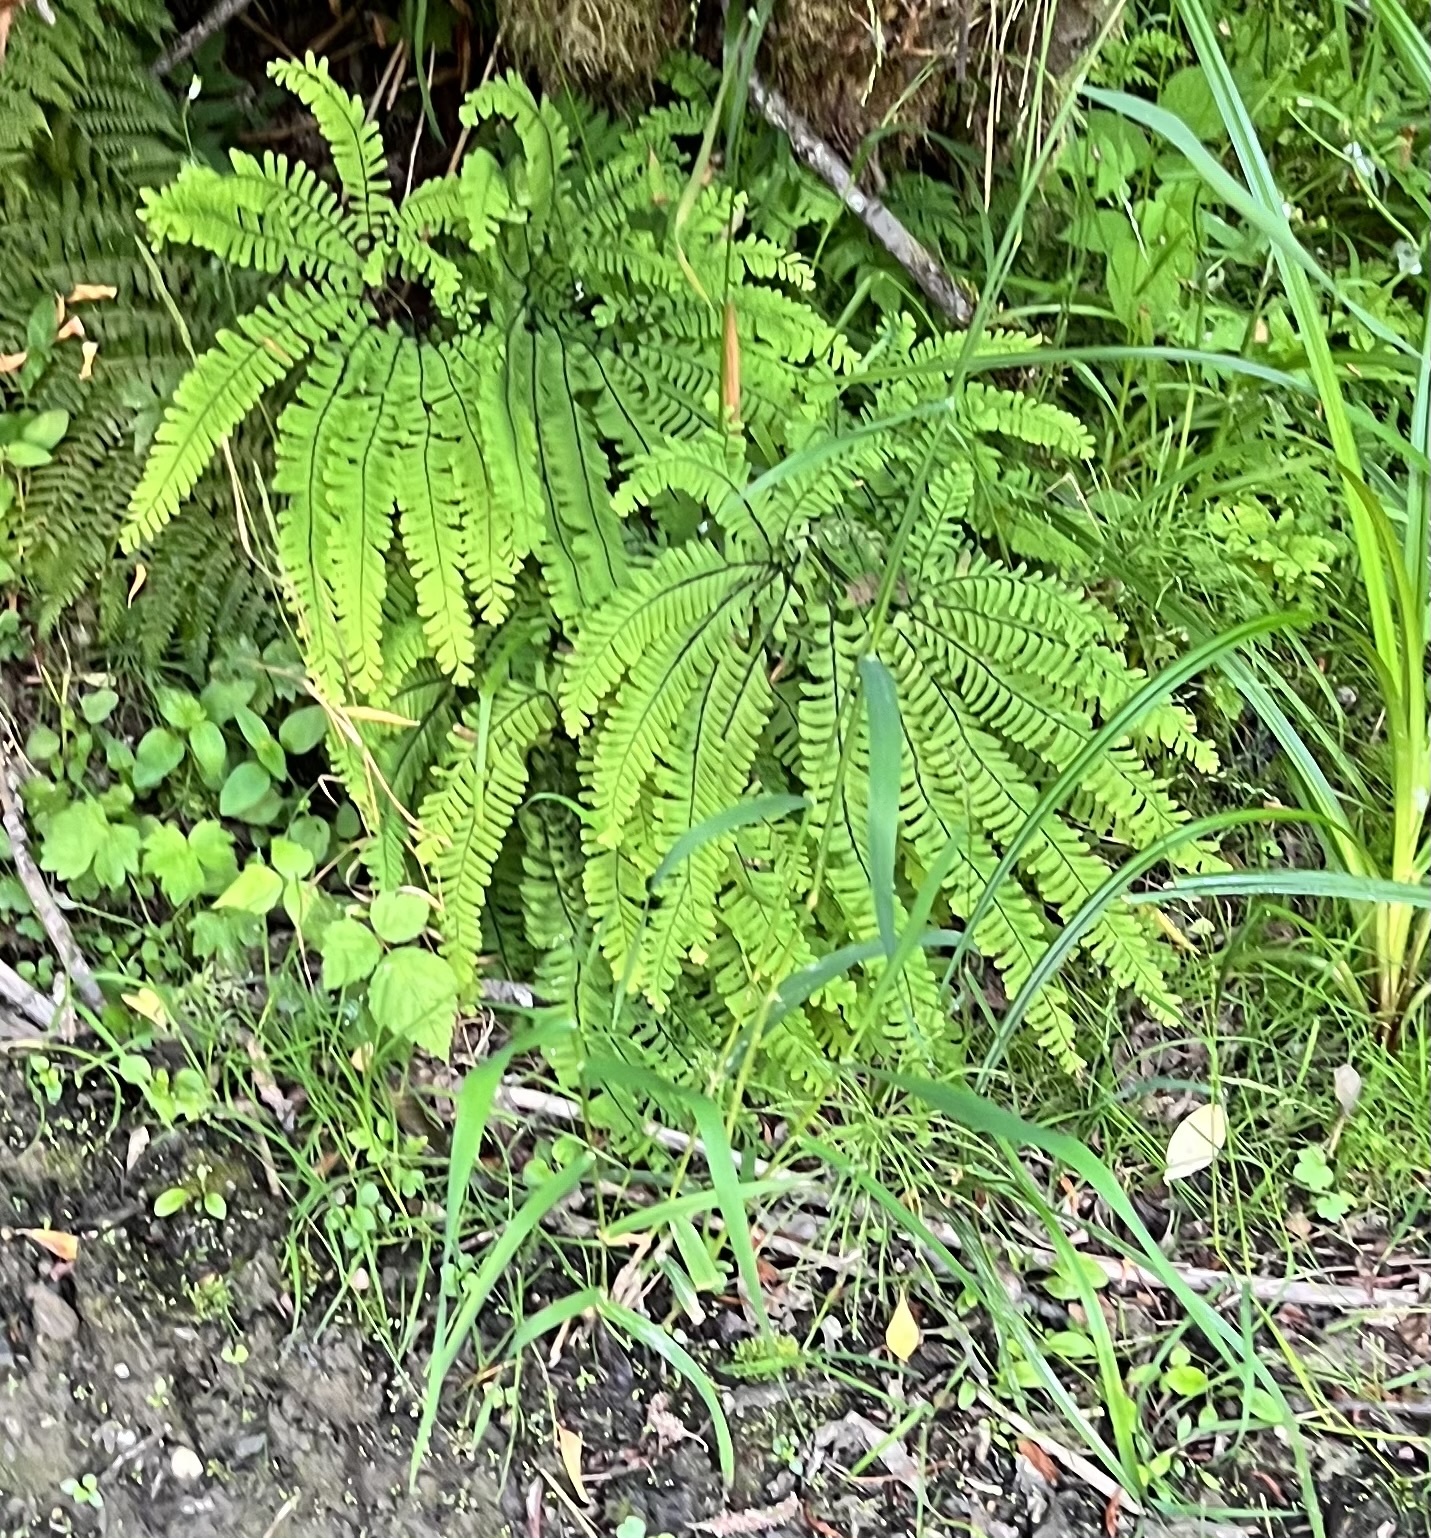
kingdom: Plantae
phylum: Tracheophyta
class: Polypodiopsida
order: Polypodiales
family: Pteridaceae
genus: Adiantum
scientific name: Adiantum aleuticum
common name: Aleutian maidenhair fern
